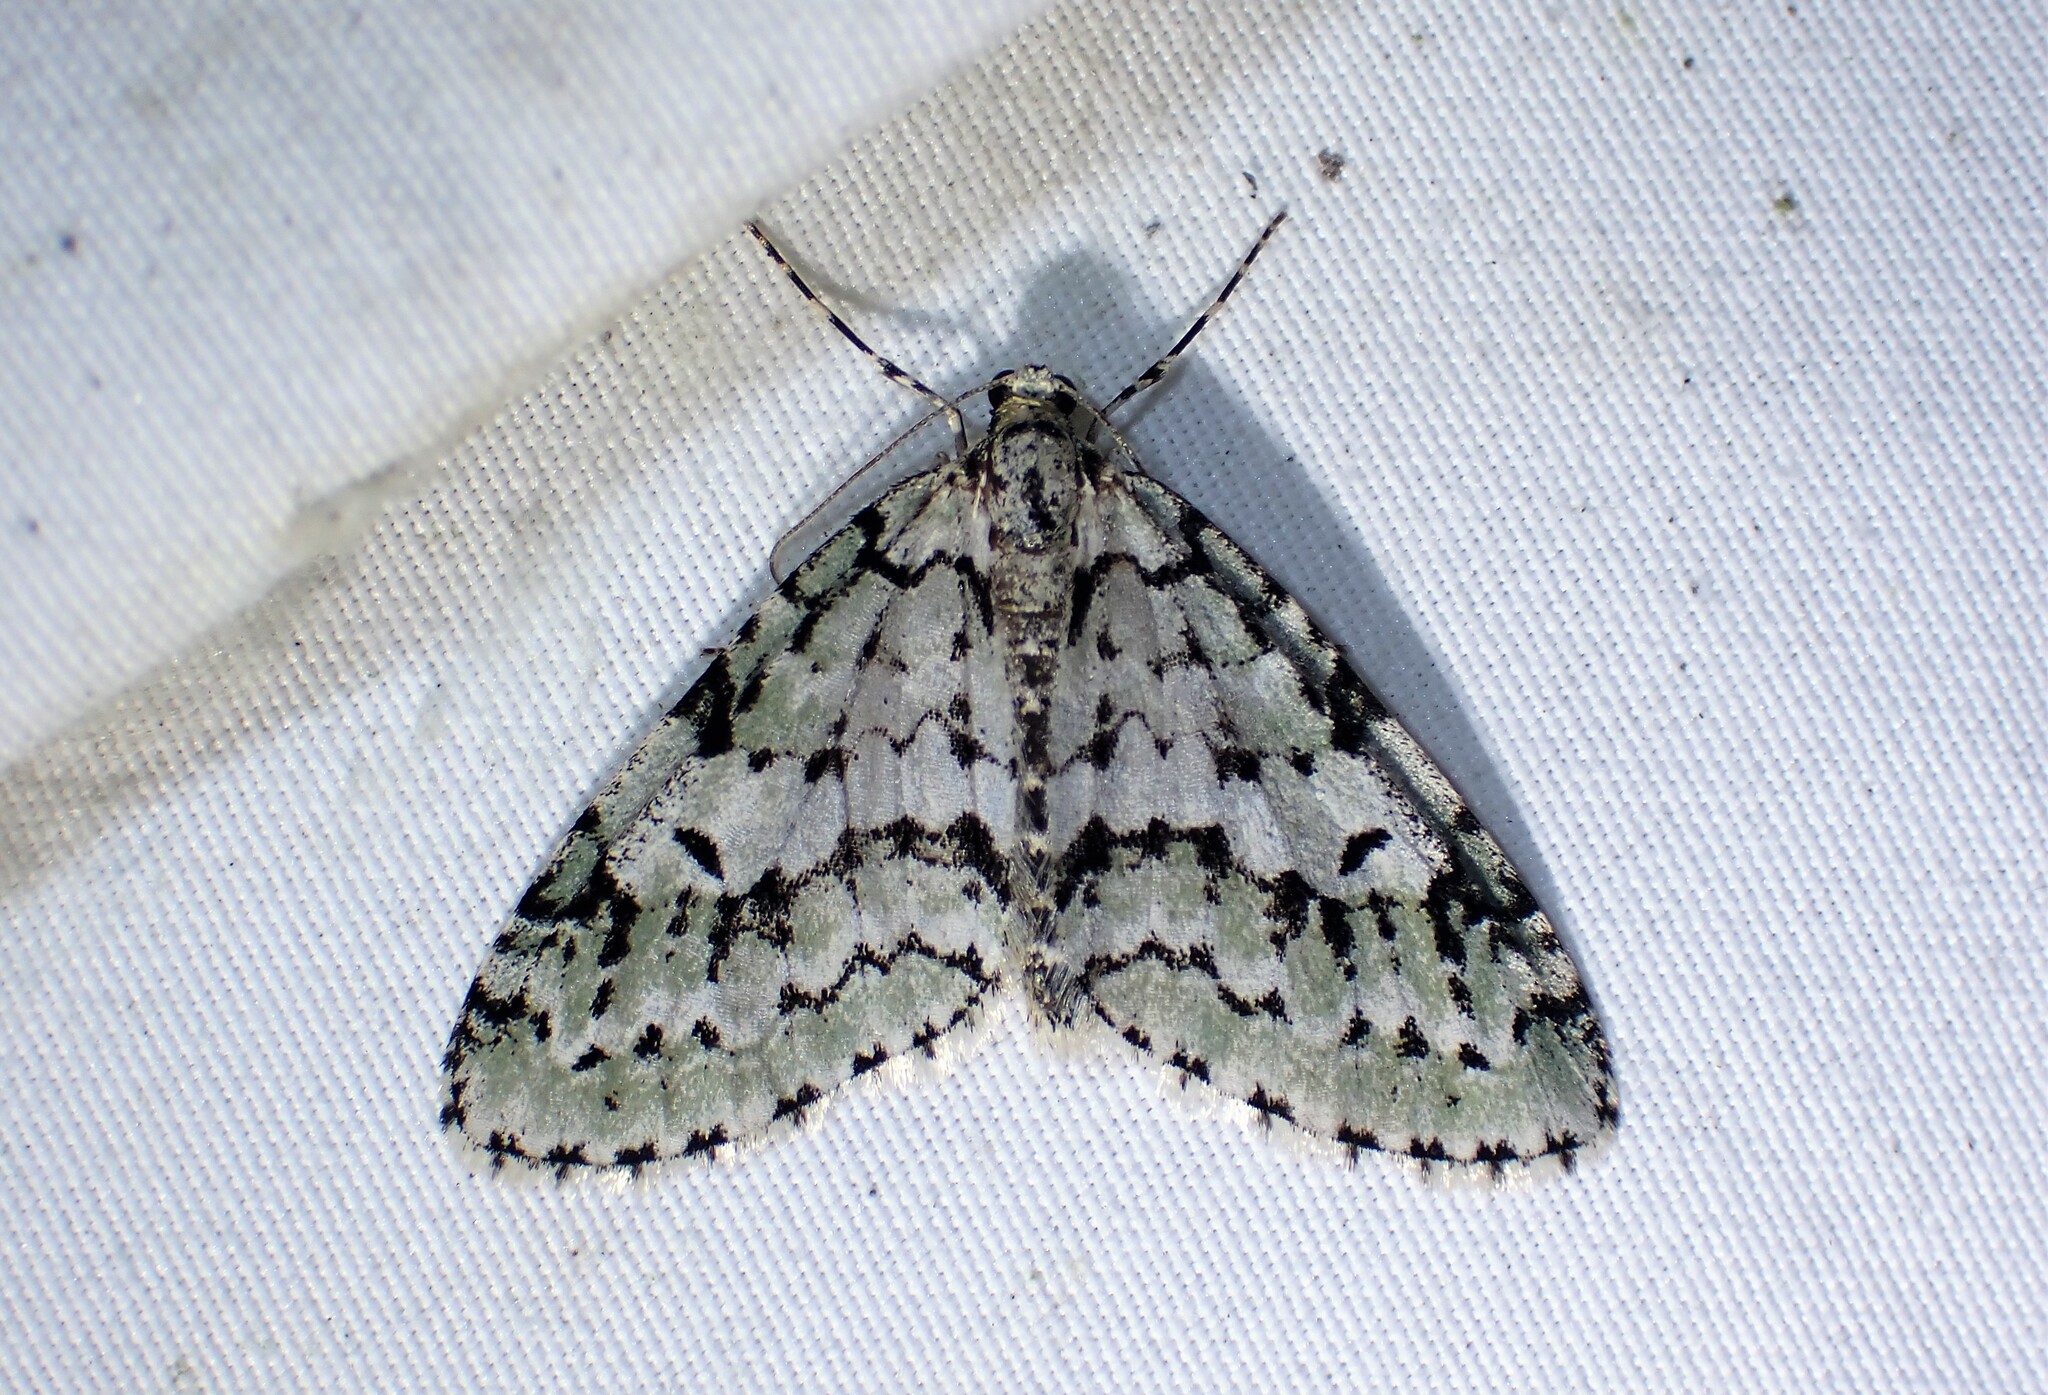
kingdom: Animalia
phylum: Arthropoda
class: Insecta
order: Lepidoptera
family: Geometridae
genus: Cladara
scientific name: Cladara atroliturata
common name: Scribbler
